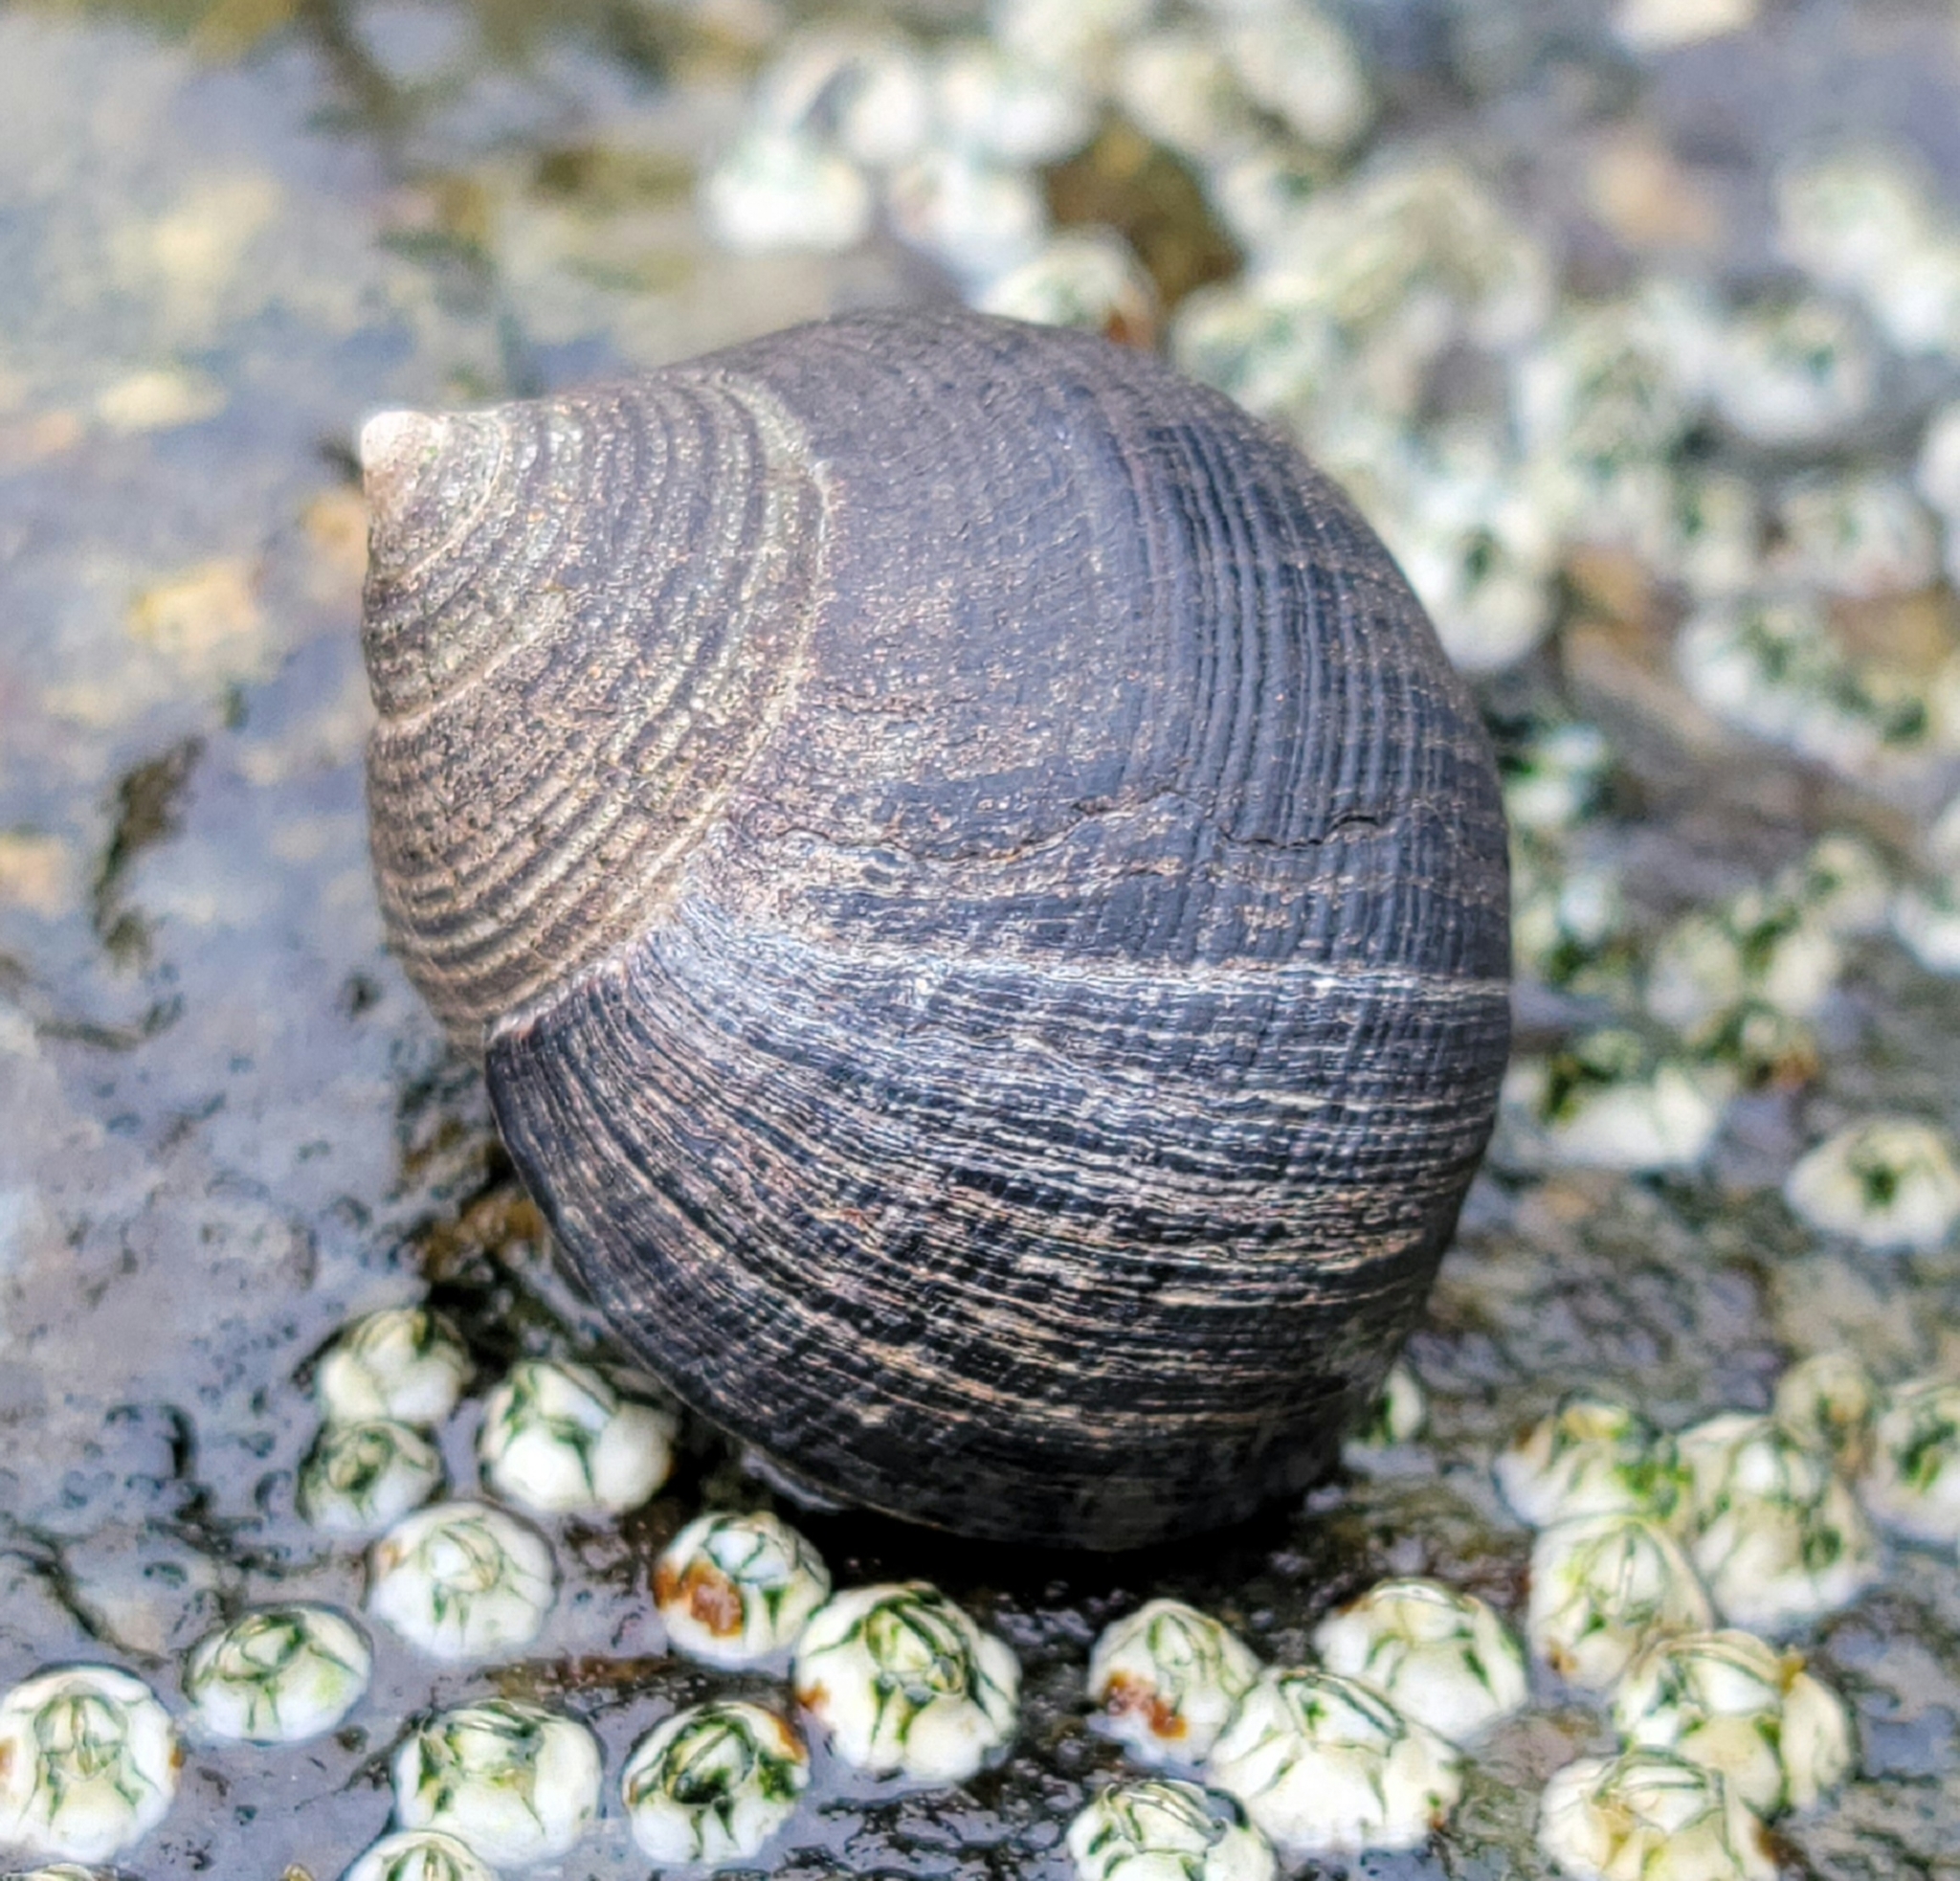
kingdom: Animalia
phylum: Mollusca
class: Gastropoda
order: Littorinimorpha
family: Littorinidae
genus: Littorina
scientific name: Littorina littorea
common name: Common periwinkle
